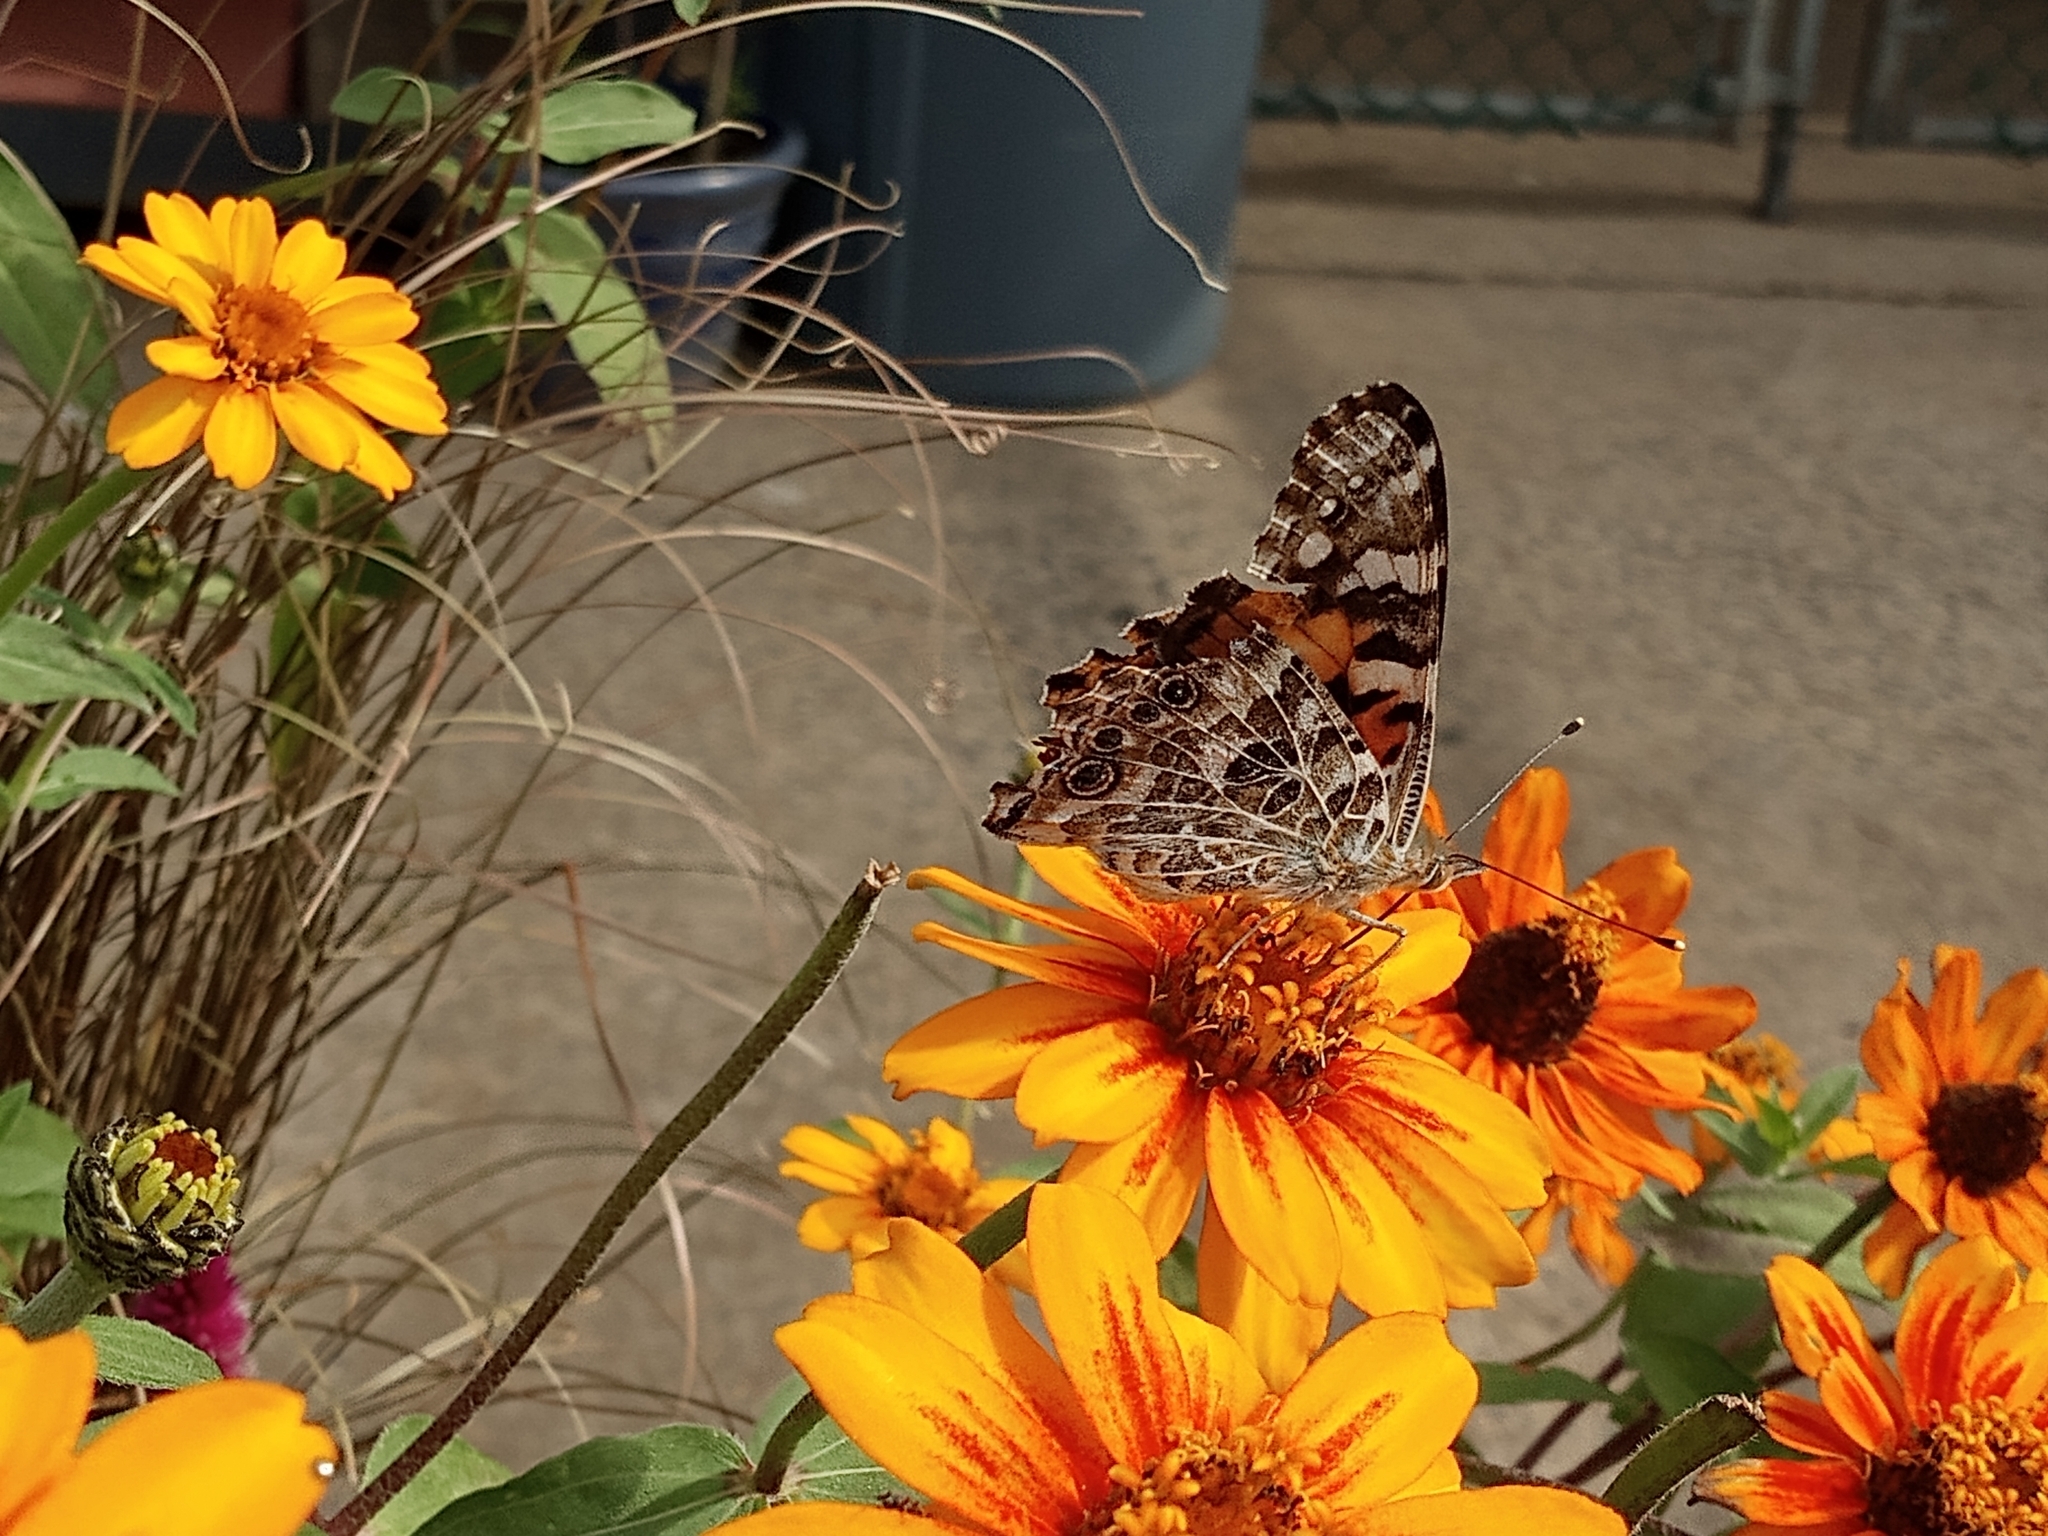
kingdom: Animalia
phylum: Arthropoda
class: Insecta
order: Lepidoptera
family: Nymphalidae
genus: Vanessa
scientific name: Vanessa cardui
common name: Painted lady
